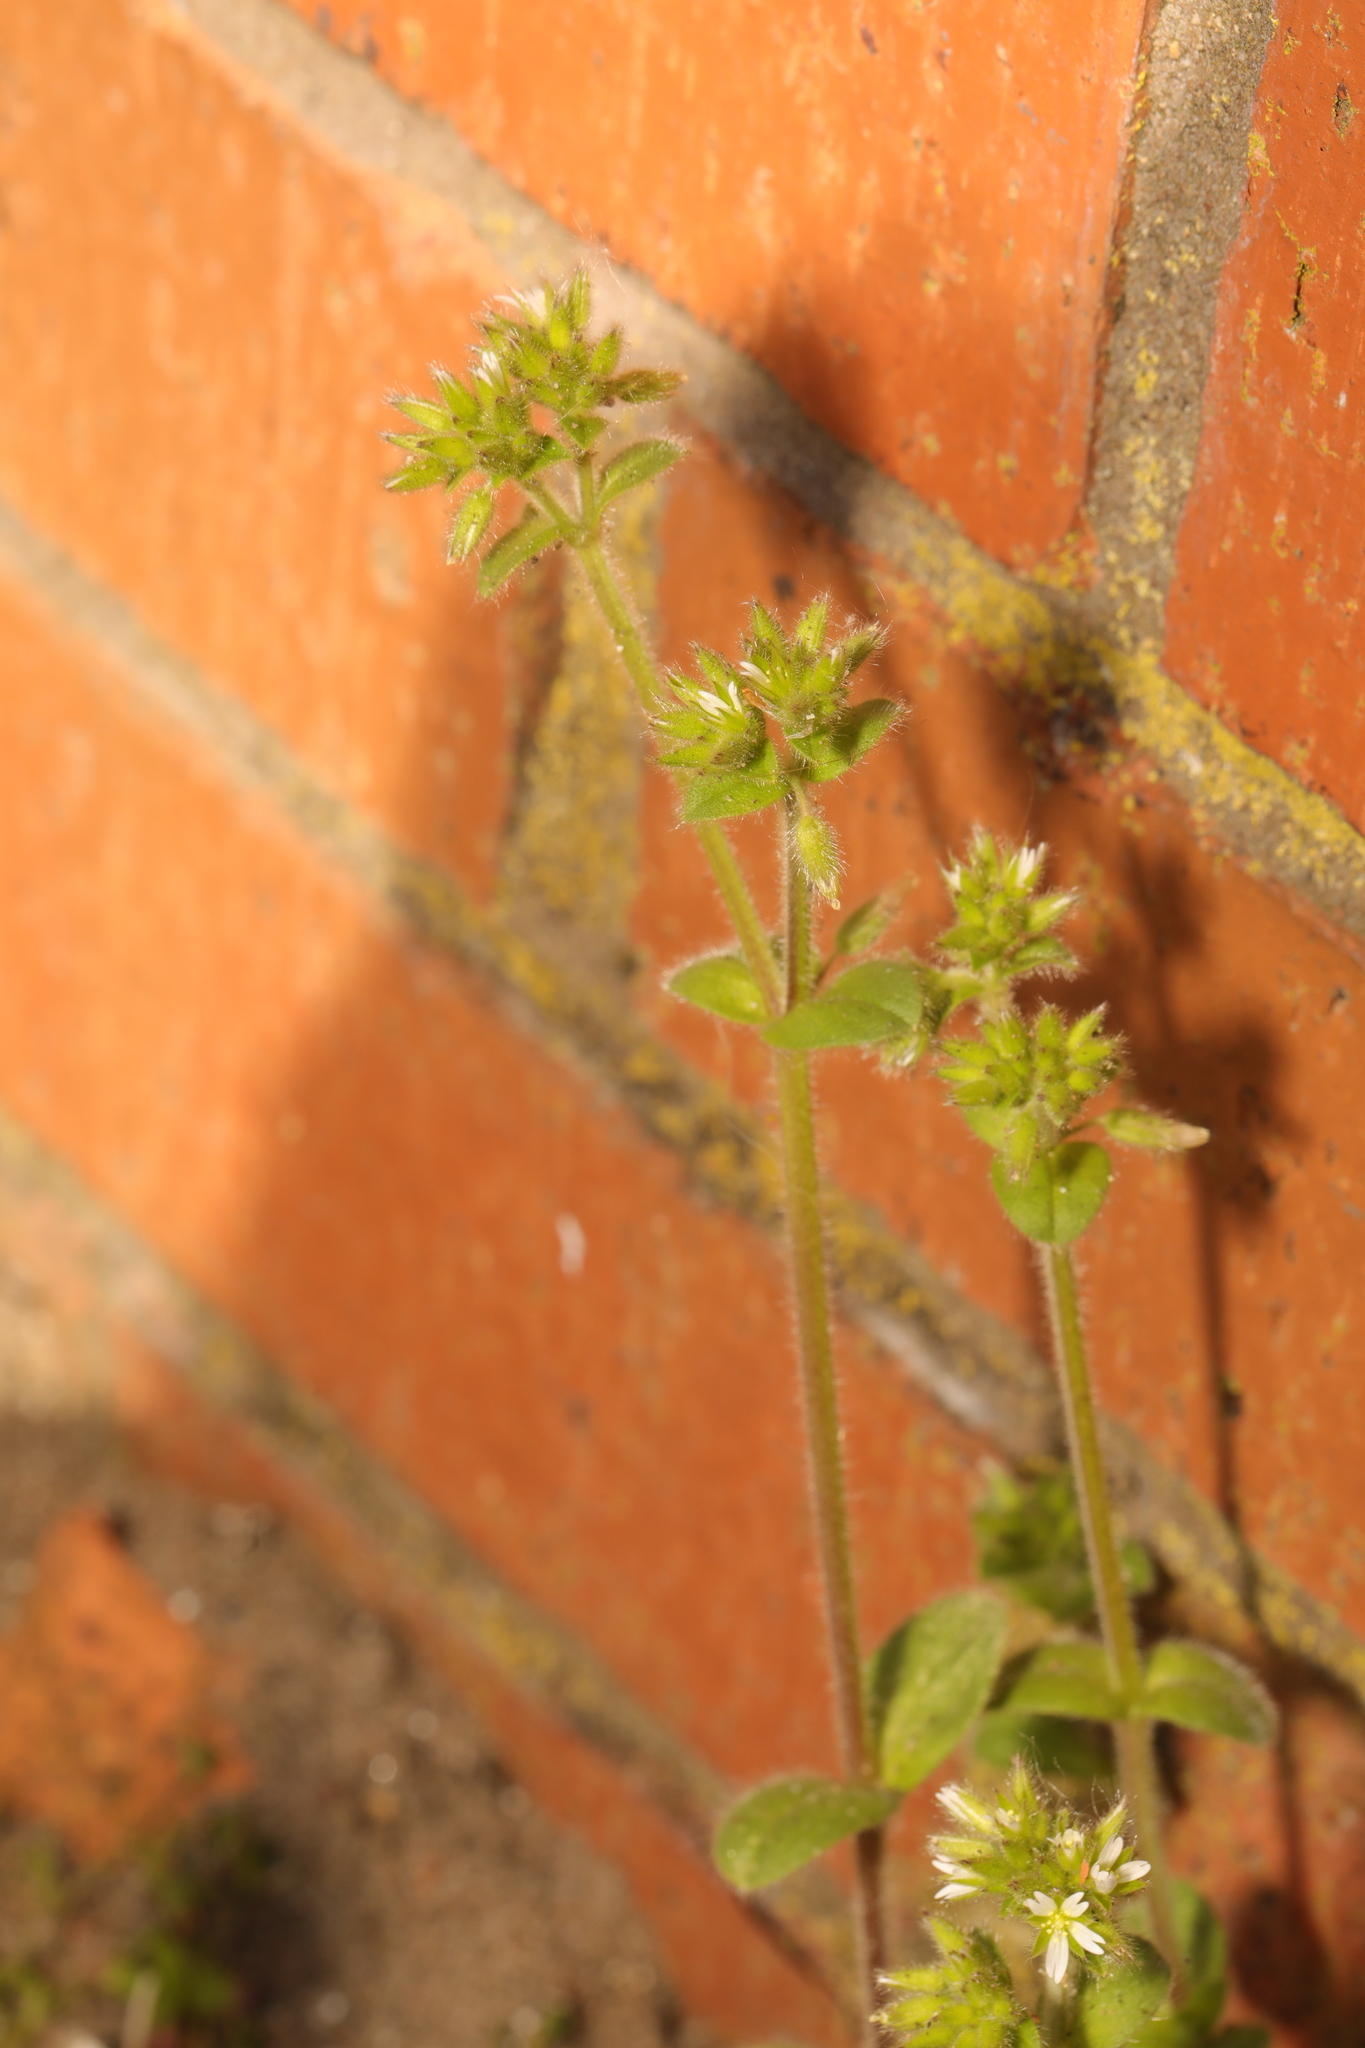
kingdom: Plantae
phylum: Tracheophyta
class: Magnoliopsida
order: Caryophyllales
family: Caryophyllaceae
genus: Cerastium
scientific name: Cerastium glomeratum
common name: Sticky chickweed
